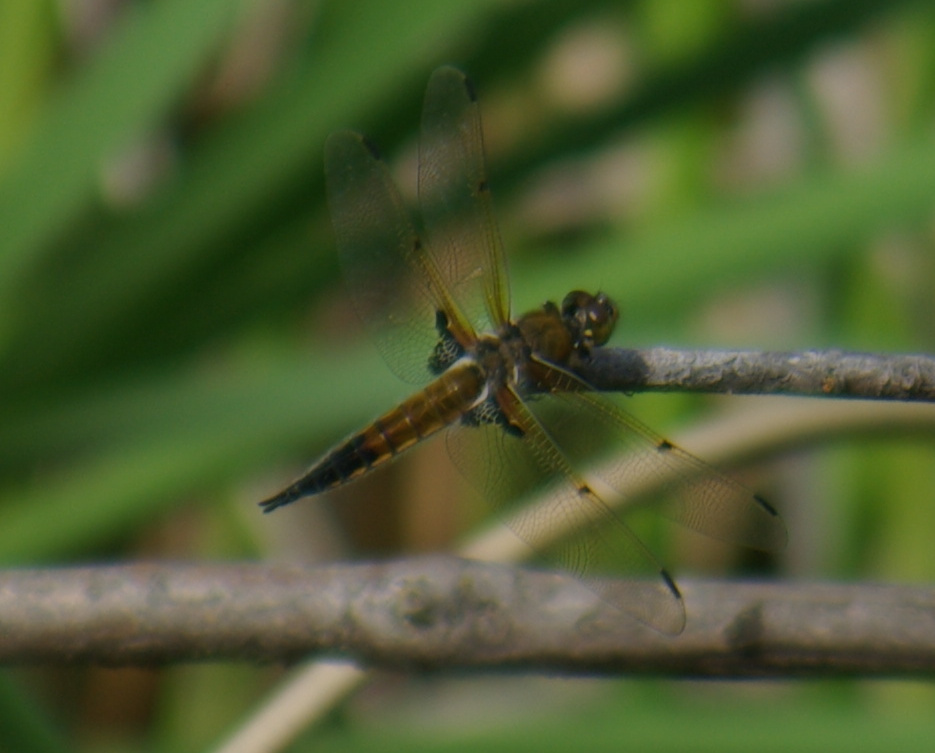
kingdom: Animalia
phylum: Arthropoda
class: Insecta
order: Odonata
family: Libellulidae
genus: Libellula
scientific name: Libellula quadrimaculata
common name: Four-spotted chaser
